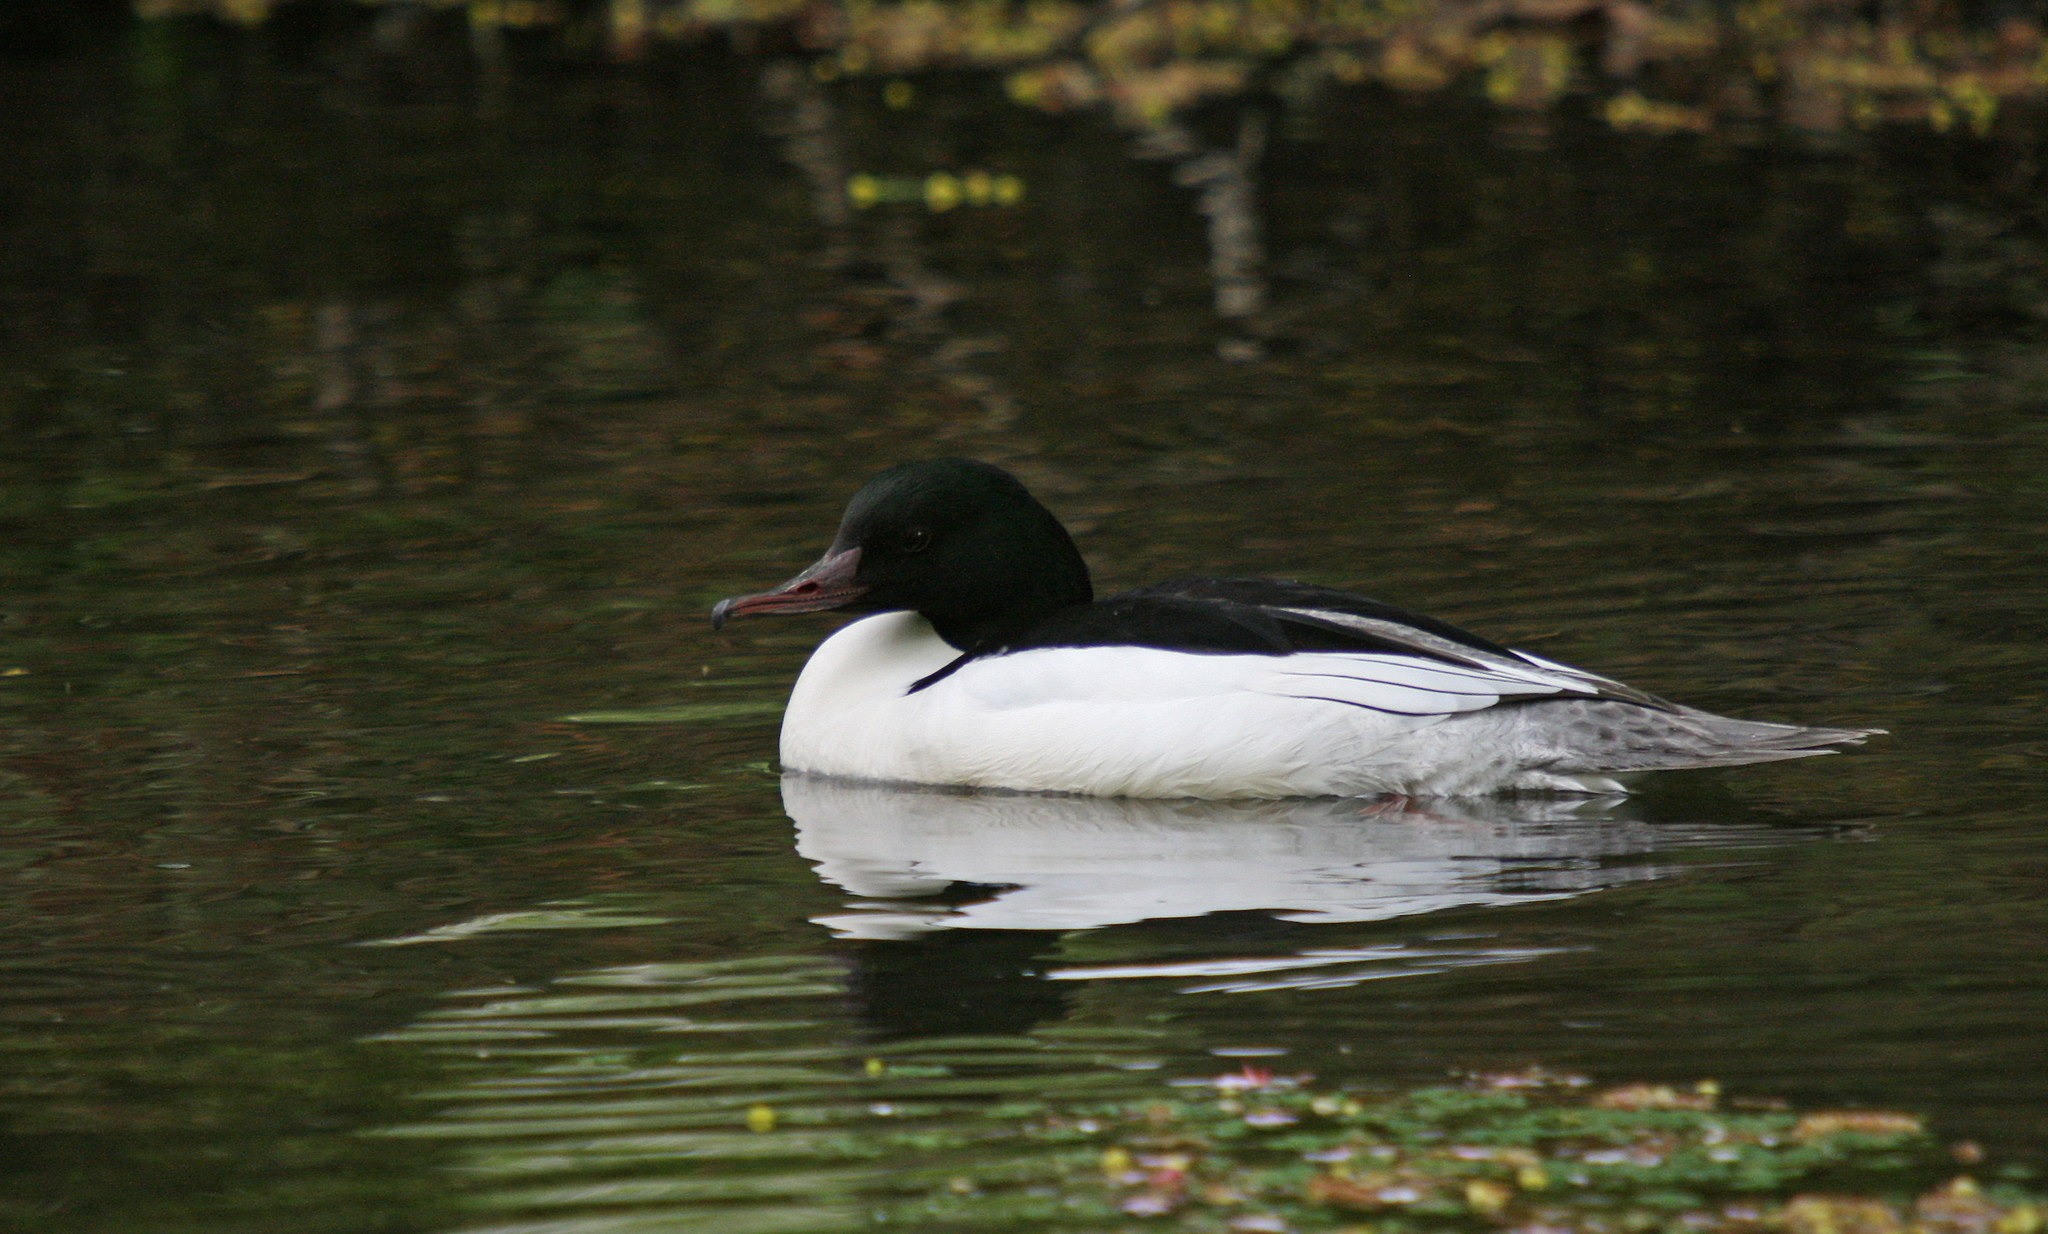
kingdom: Animalia
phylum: Chordata
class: Aves
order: Anseriformes
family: Anatidae
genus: Mergus
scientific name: Mergus merganser
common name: Common merganser
